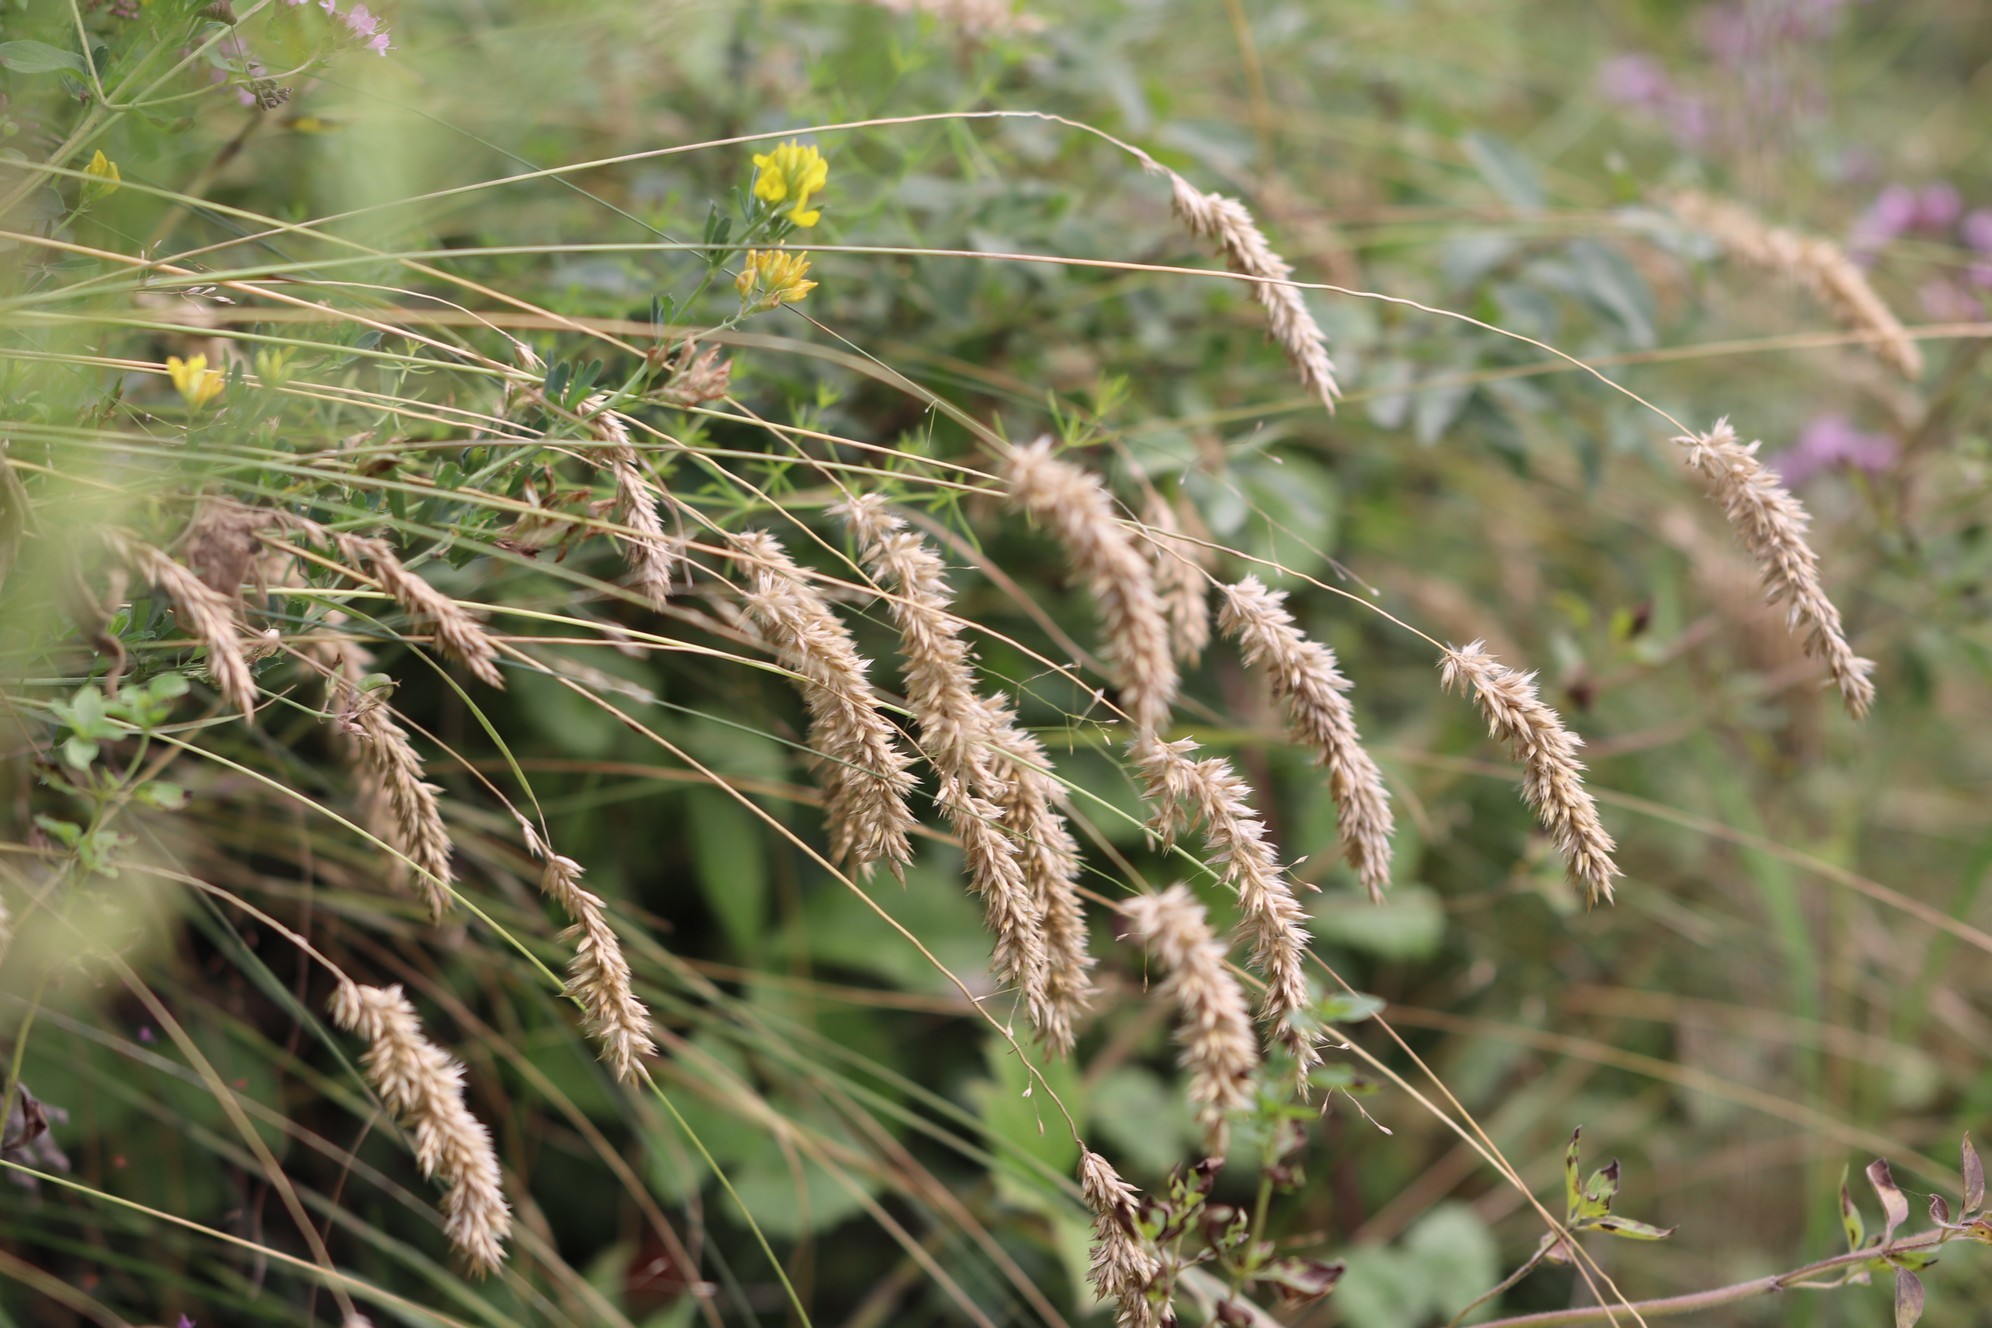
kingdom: Plantae
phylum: Tracheophyta
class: Liliopsida
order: Poales
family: Poaceae
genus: Melica
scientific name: Melica transsilvanica
